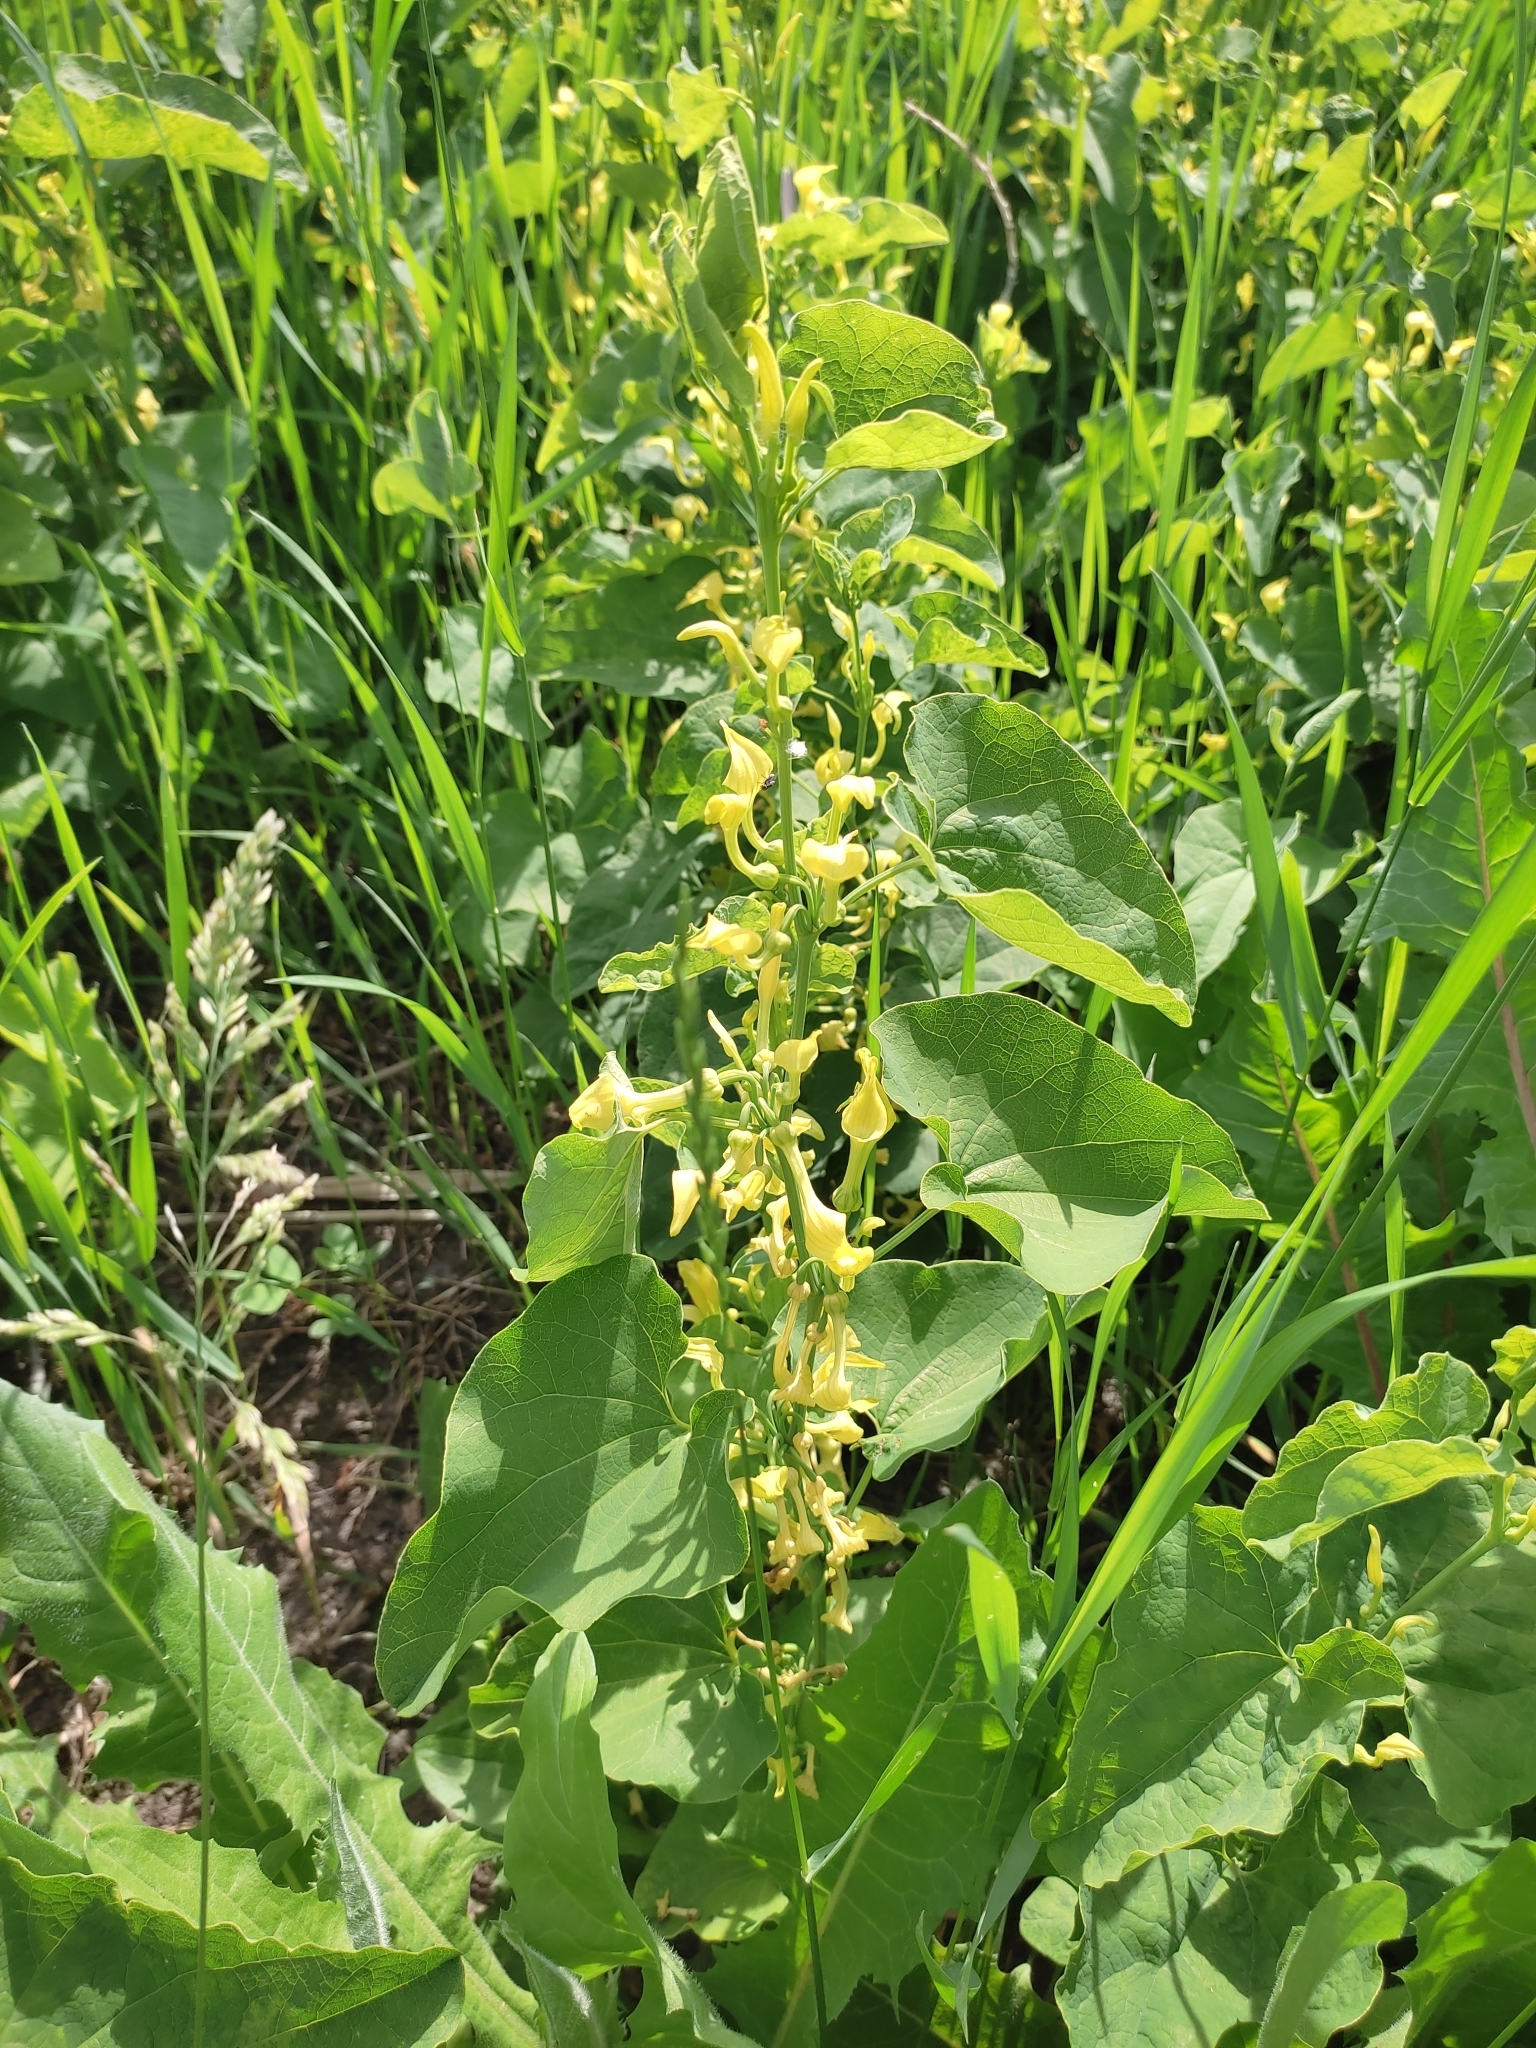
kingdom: Plantae
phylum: Tracheophyta
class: Magnoliopsida
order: Piperales
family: Aristolochiaceae
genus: Aristolochia
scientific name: Aristolochia clematitis
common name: Birthwort
